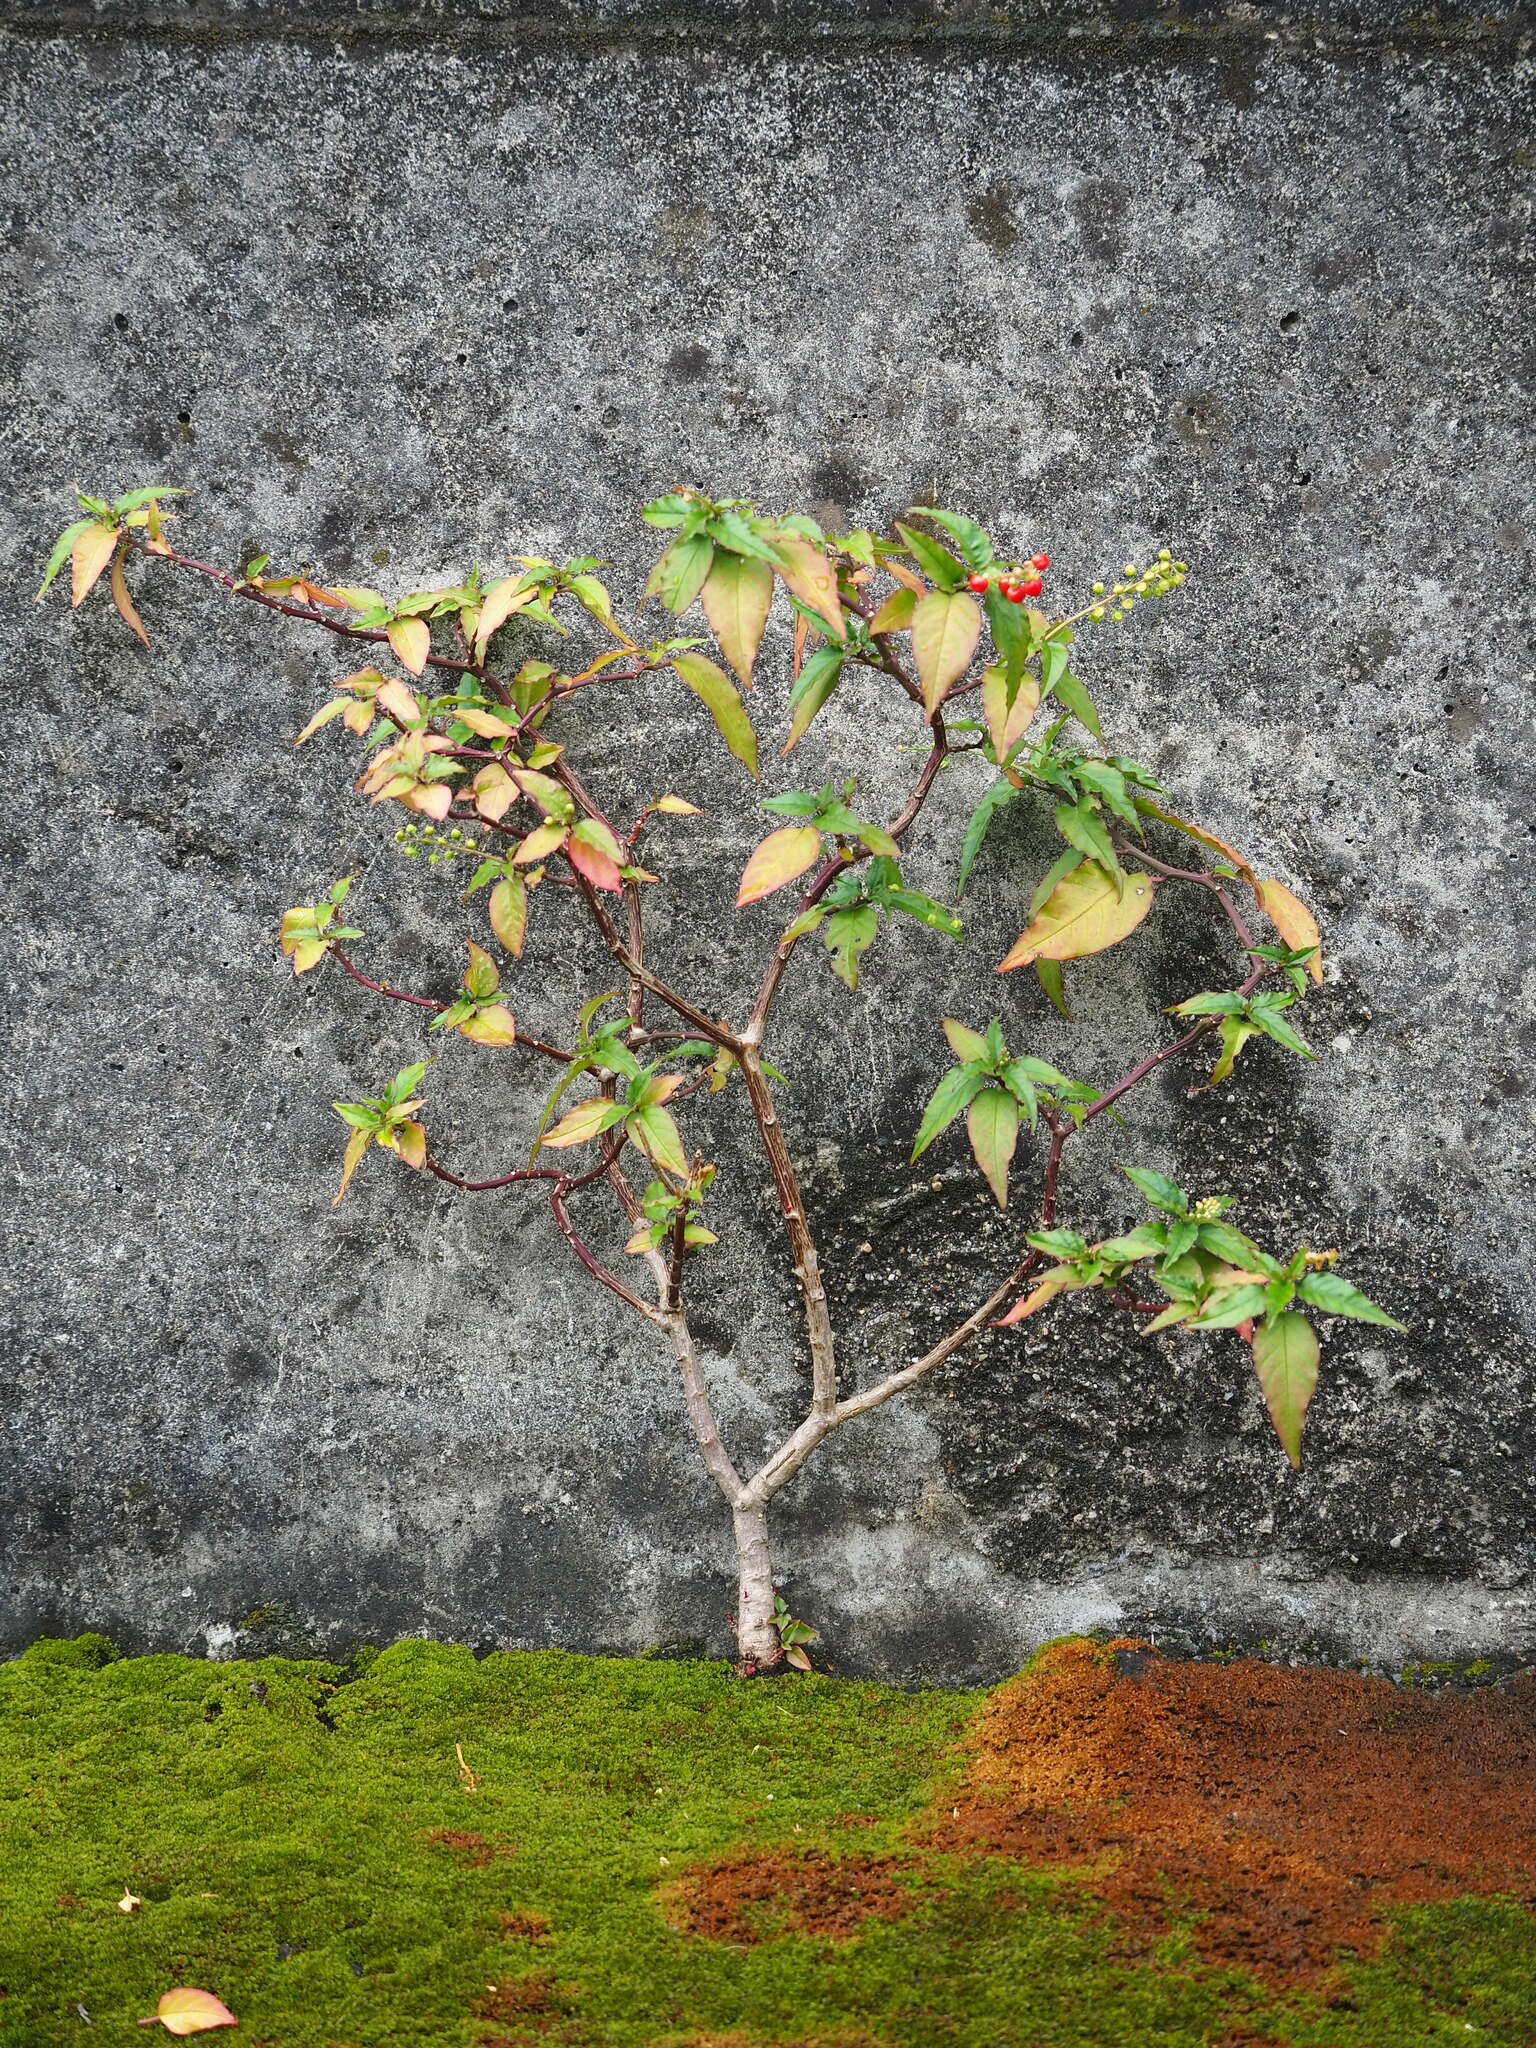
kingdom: Plantae
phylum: Tracheophyta
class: Magnoliopsida
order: Caryophyllales
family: Phytolaccaceae
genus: Rivina
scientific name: Rivina humilis
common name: Rougeplant
